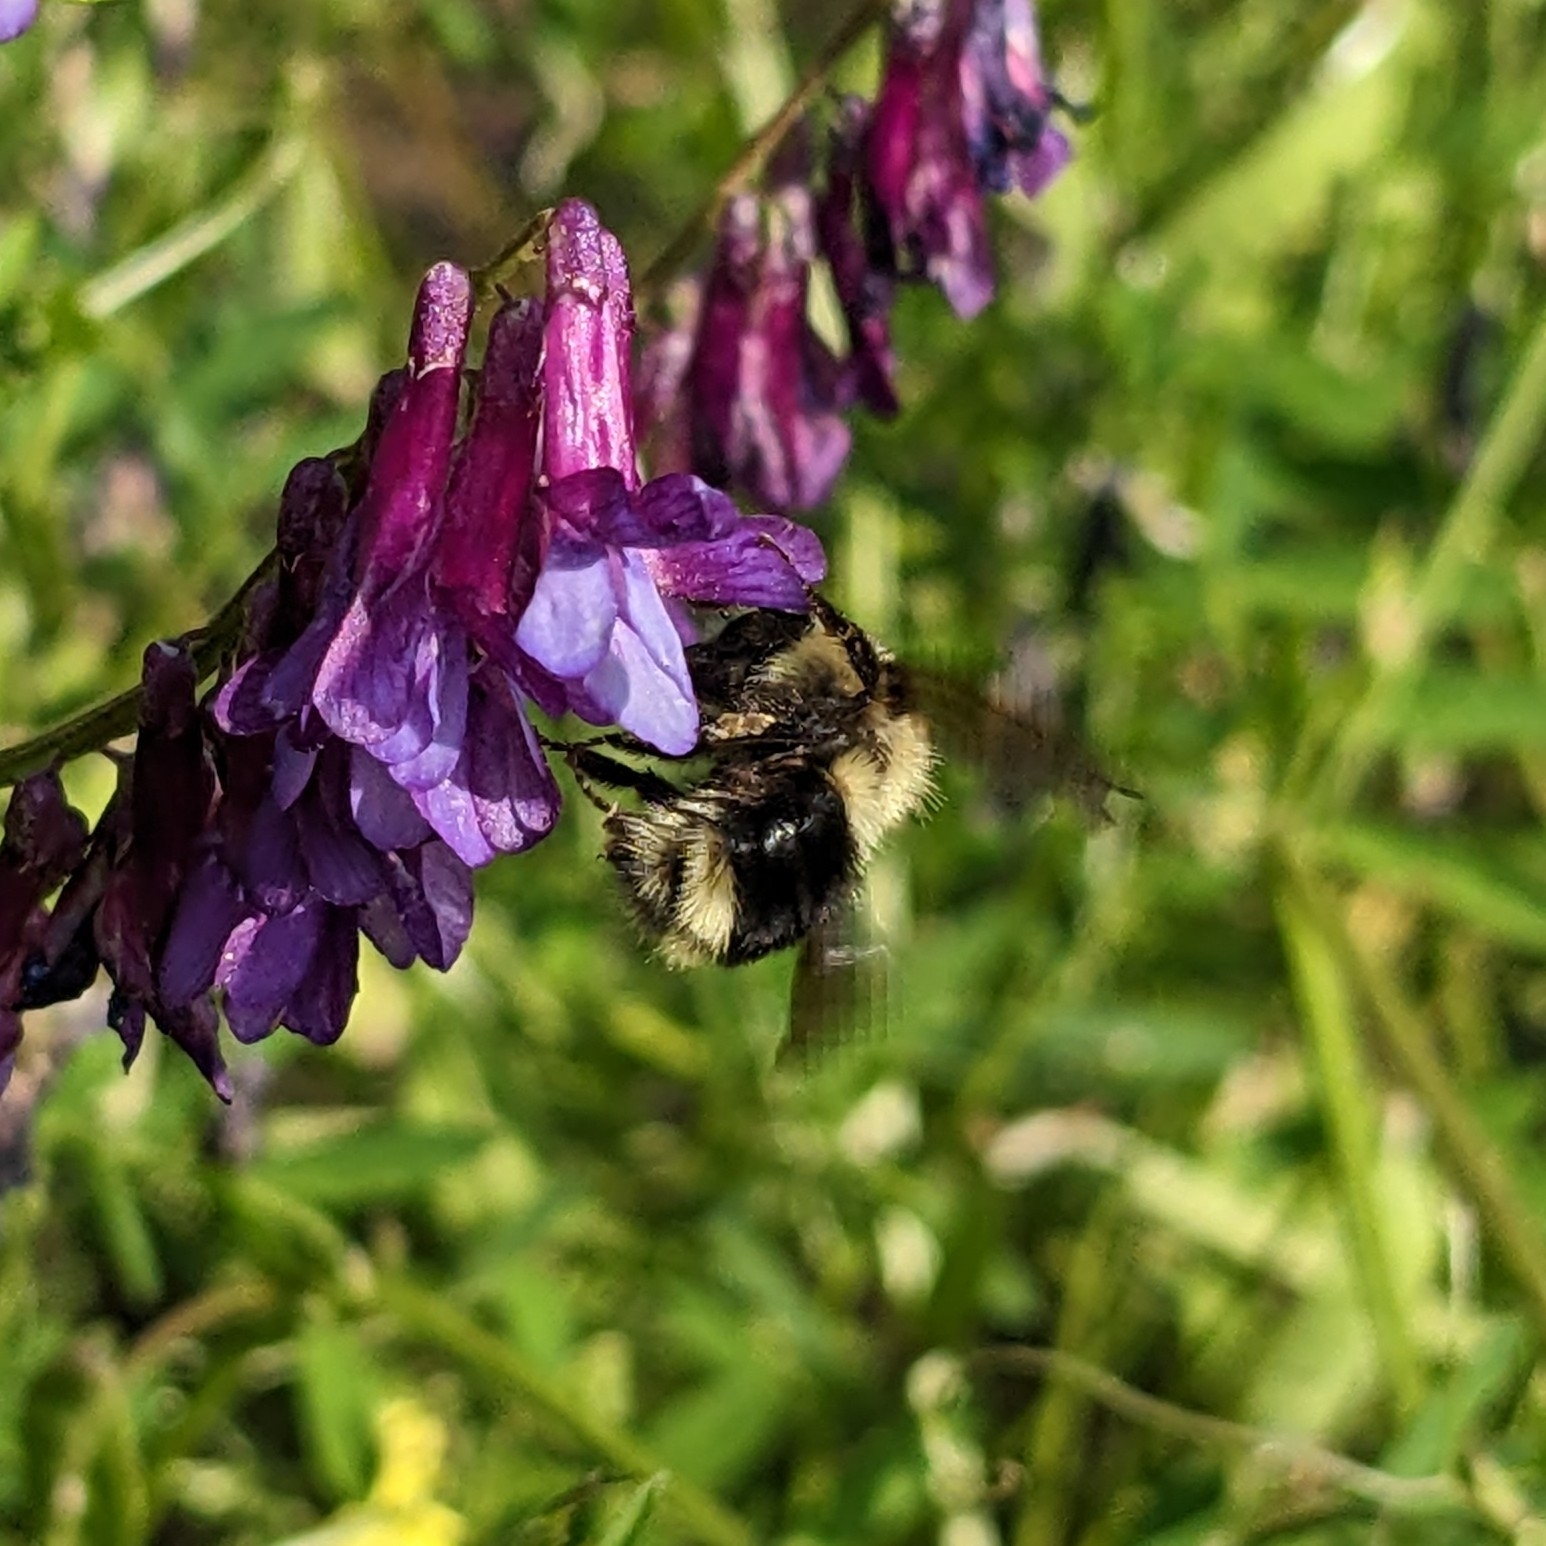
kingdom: Animalia
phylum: Arthropoda
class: Insecta
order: Hymenoptera
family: Apidae
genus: Bombus
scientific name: Bombus melanopygus
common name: Black tail bumble bee
